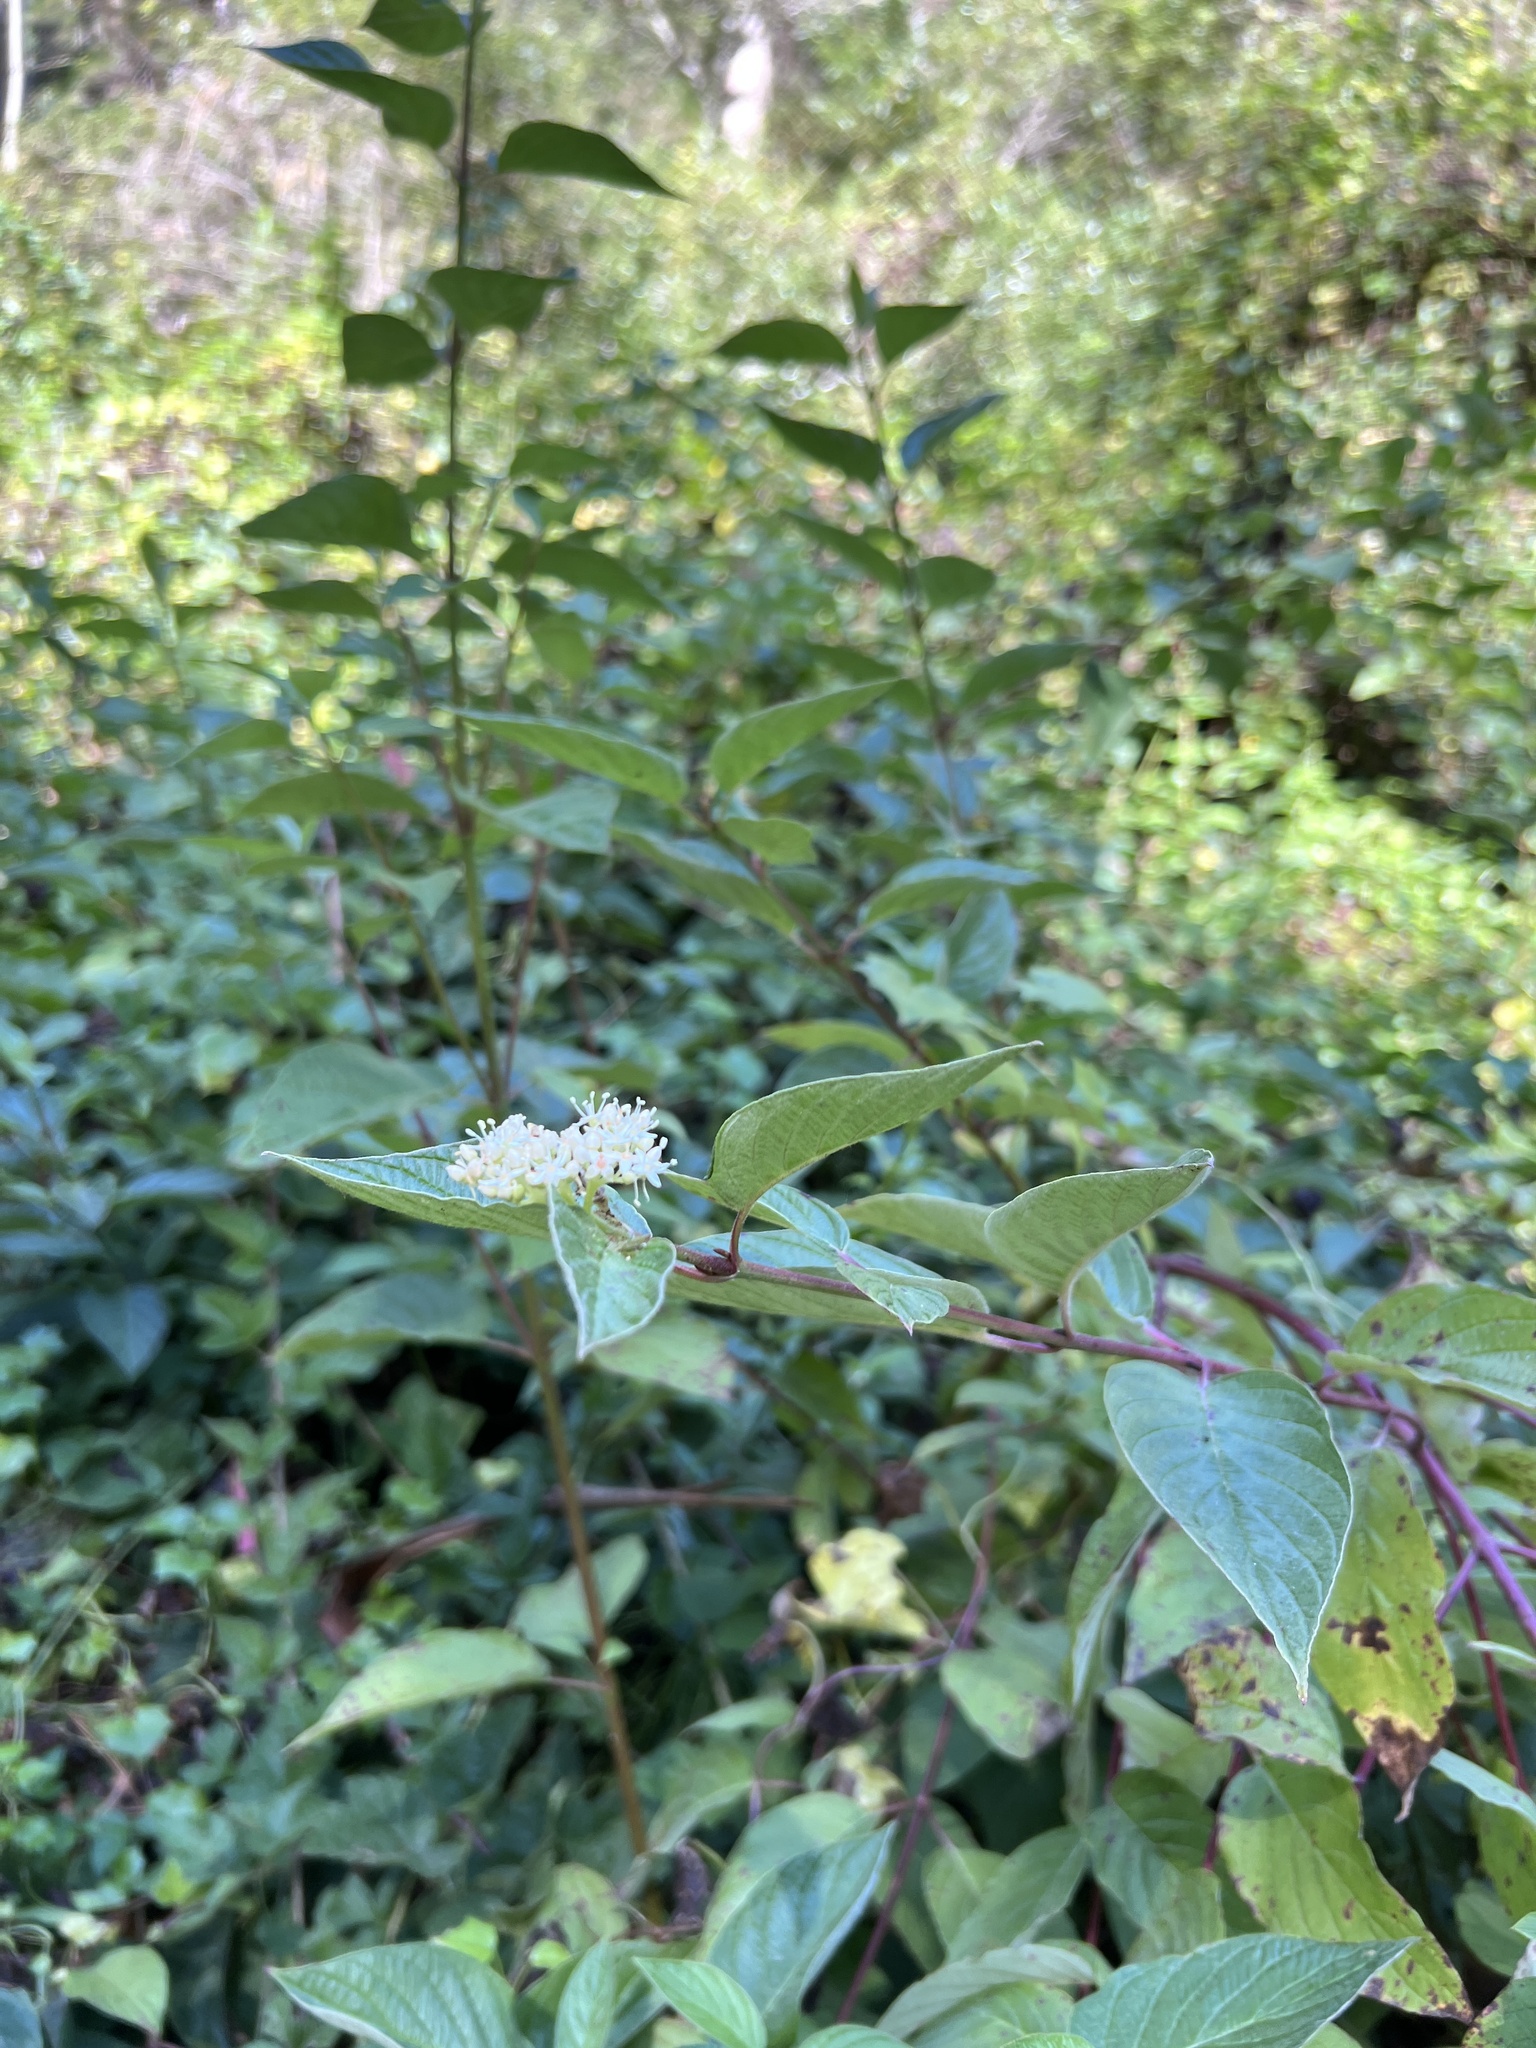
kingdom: Plantae
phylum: Tracheophyta
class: Magnoliopsida
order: Cornales
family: Cornaceae
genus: Cornus
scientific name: Cornus sericea
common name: Red-osier dogwood
